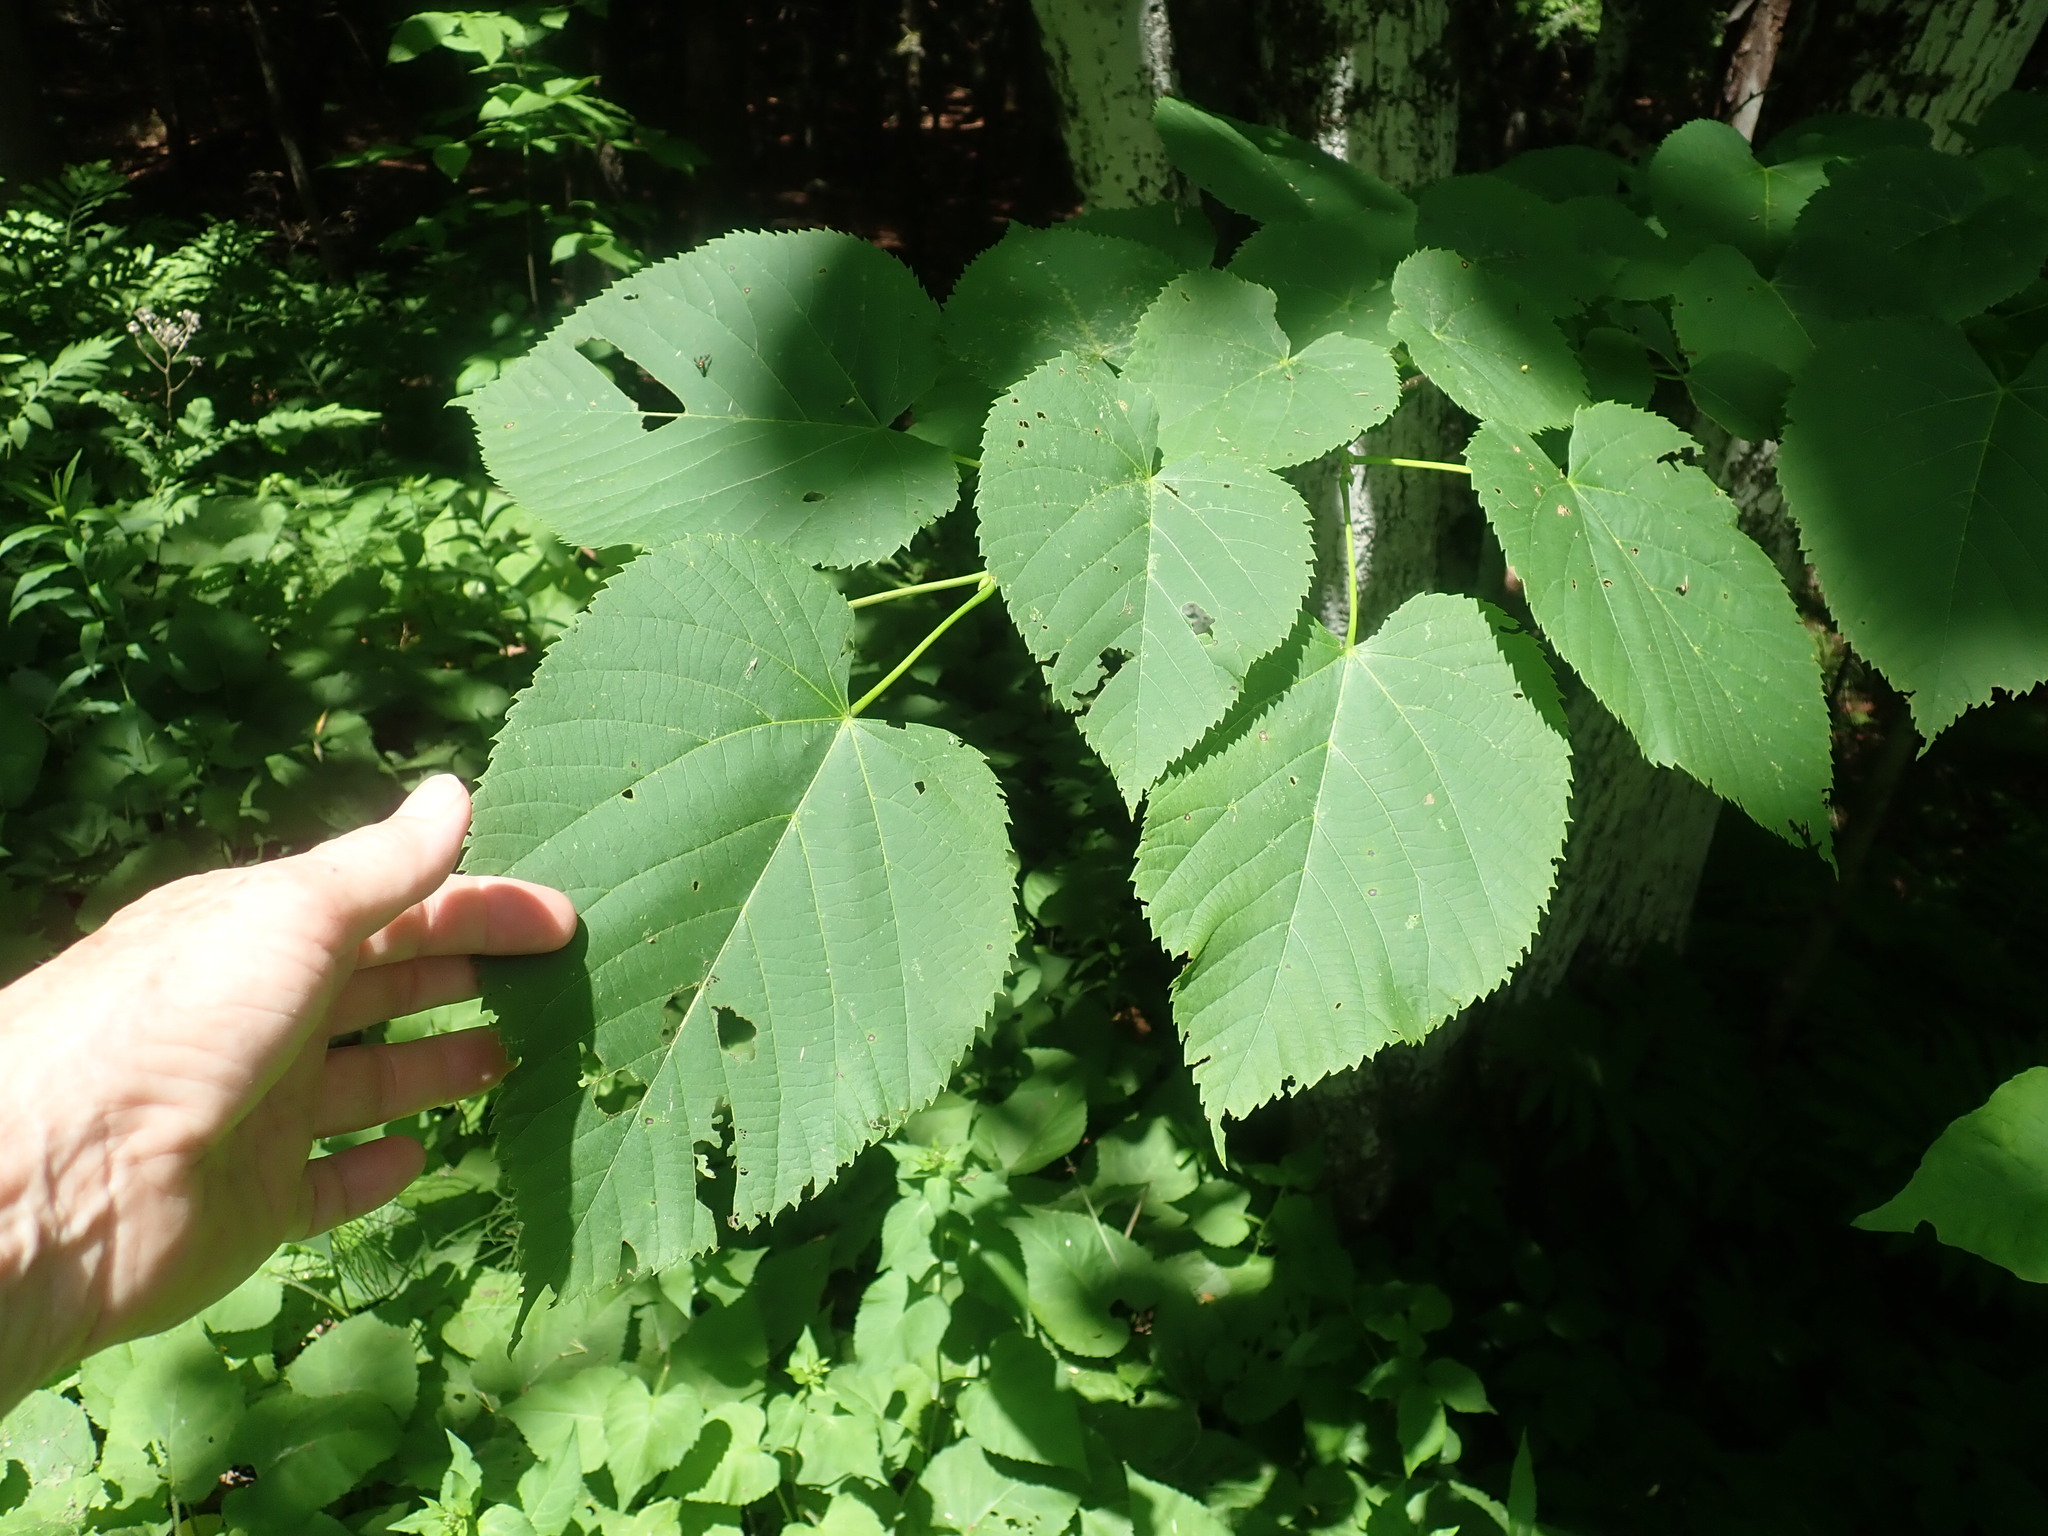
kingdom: Plantae
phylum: Tracheophyta
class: Magnoliopsida
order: Malvales
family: Malvaceae
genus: Tilia
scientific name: Tilia americana
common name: Basswood
